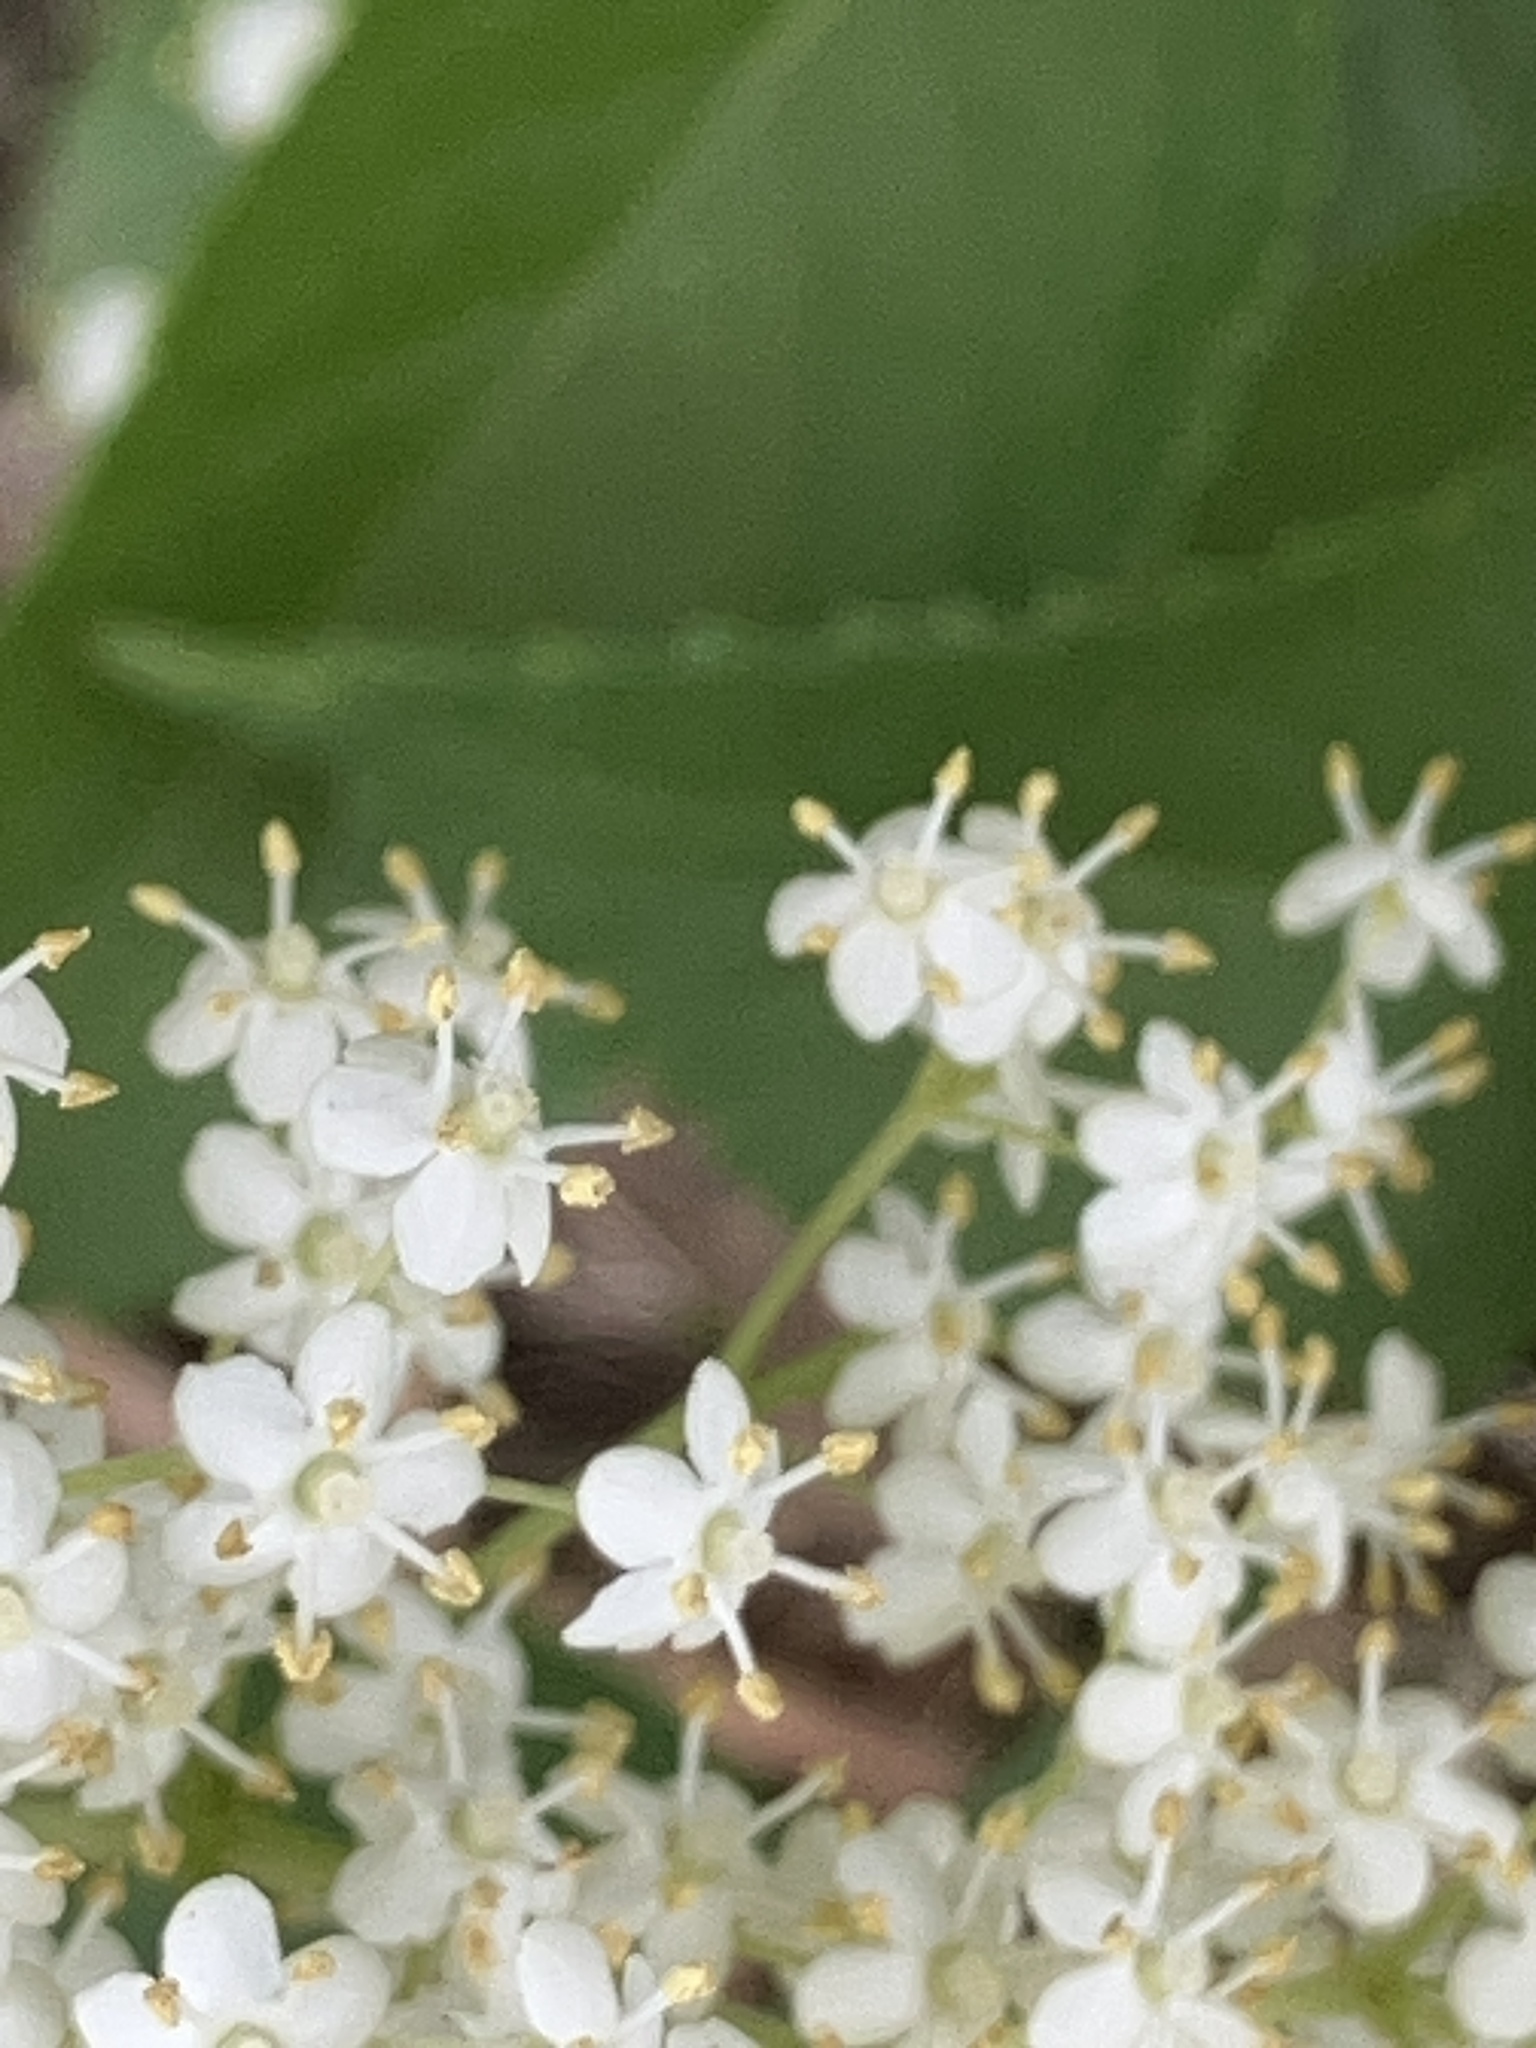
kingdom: Plantae
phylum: Tracheophyta
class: Magnoliopsida
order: Dipsacales
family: Viburnaceae
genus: Sambucus
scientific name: Sambucus nigra
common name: Elder
